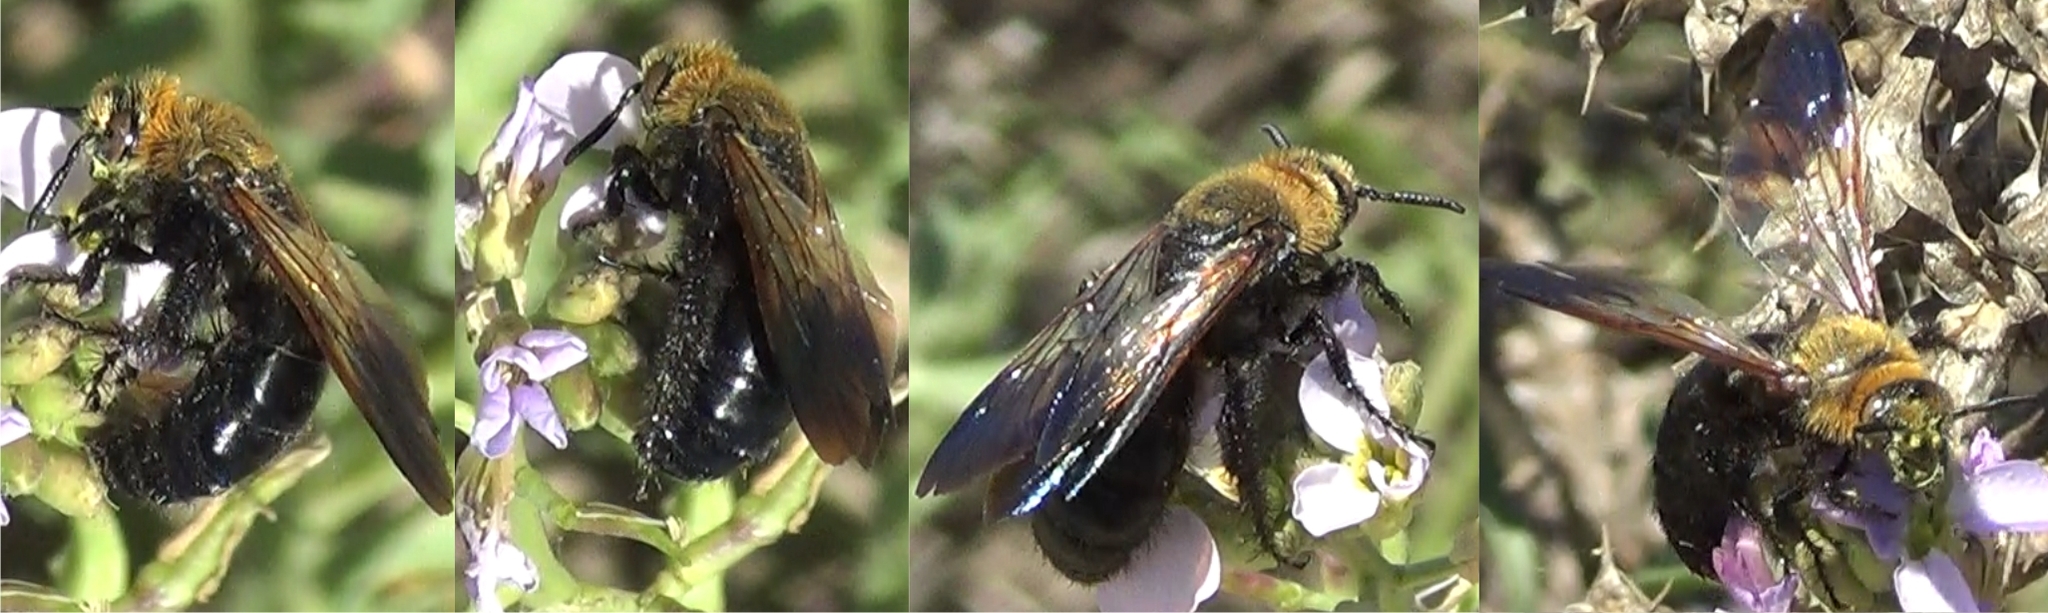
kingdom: Animalia
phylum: Arthropoda
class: Insecta
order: Hymenoptera
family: Scoliidae
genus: Campsomeriella
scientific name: Campsomeriella thoracica
